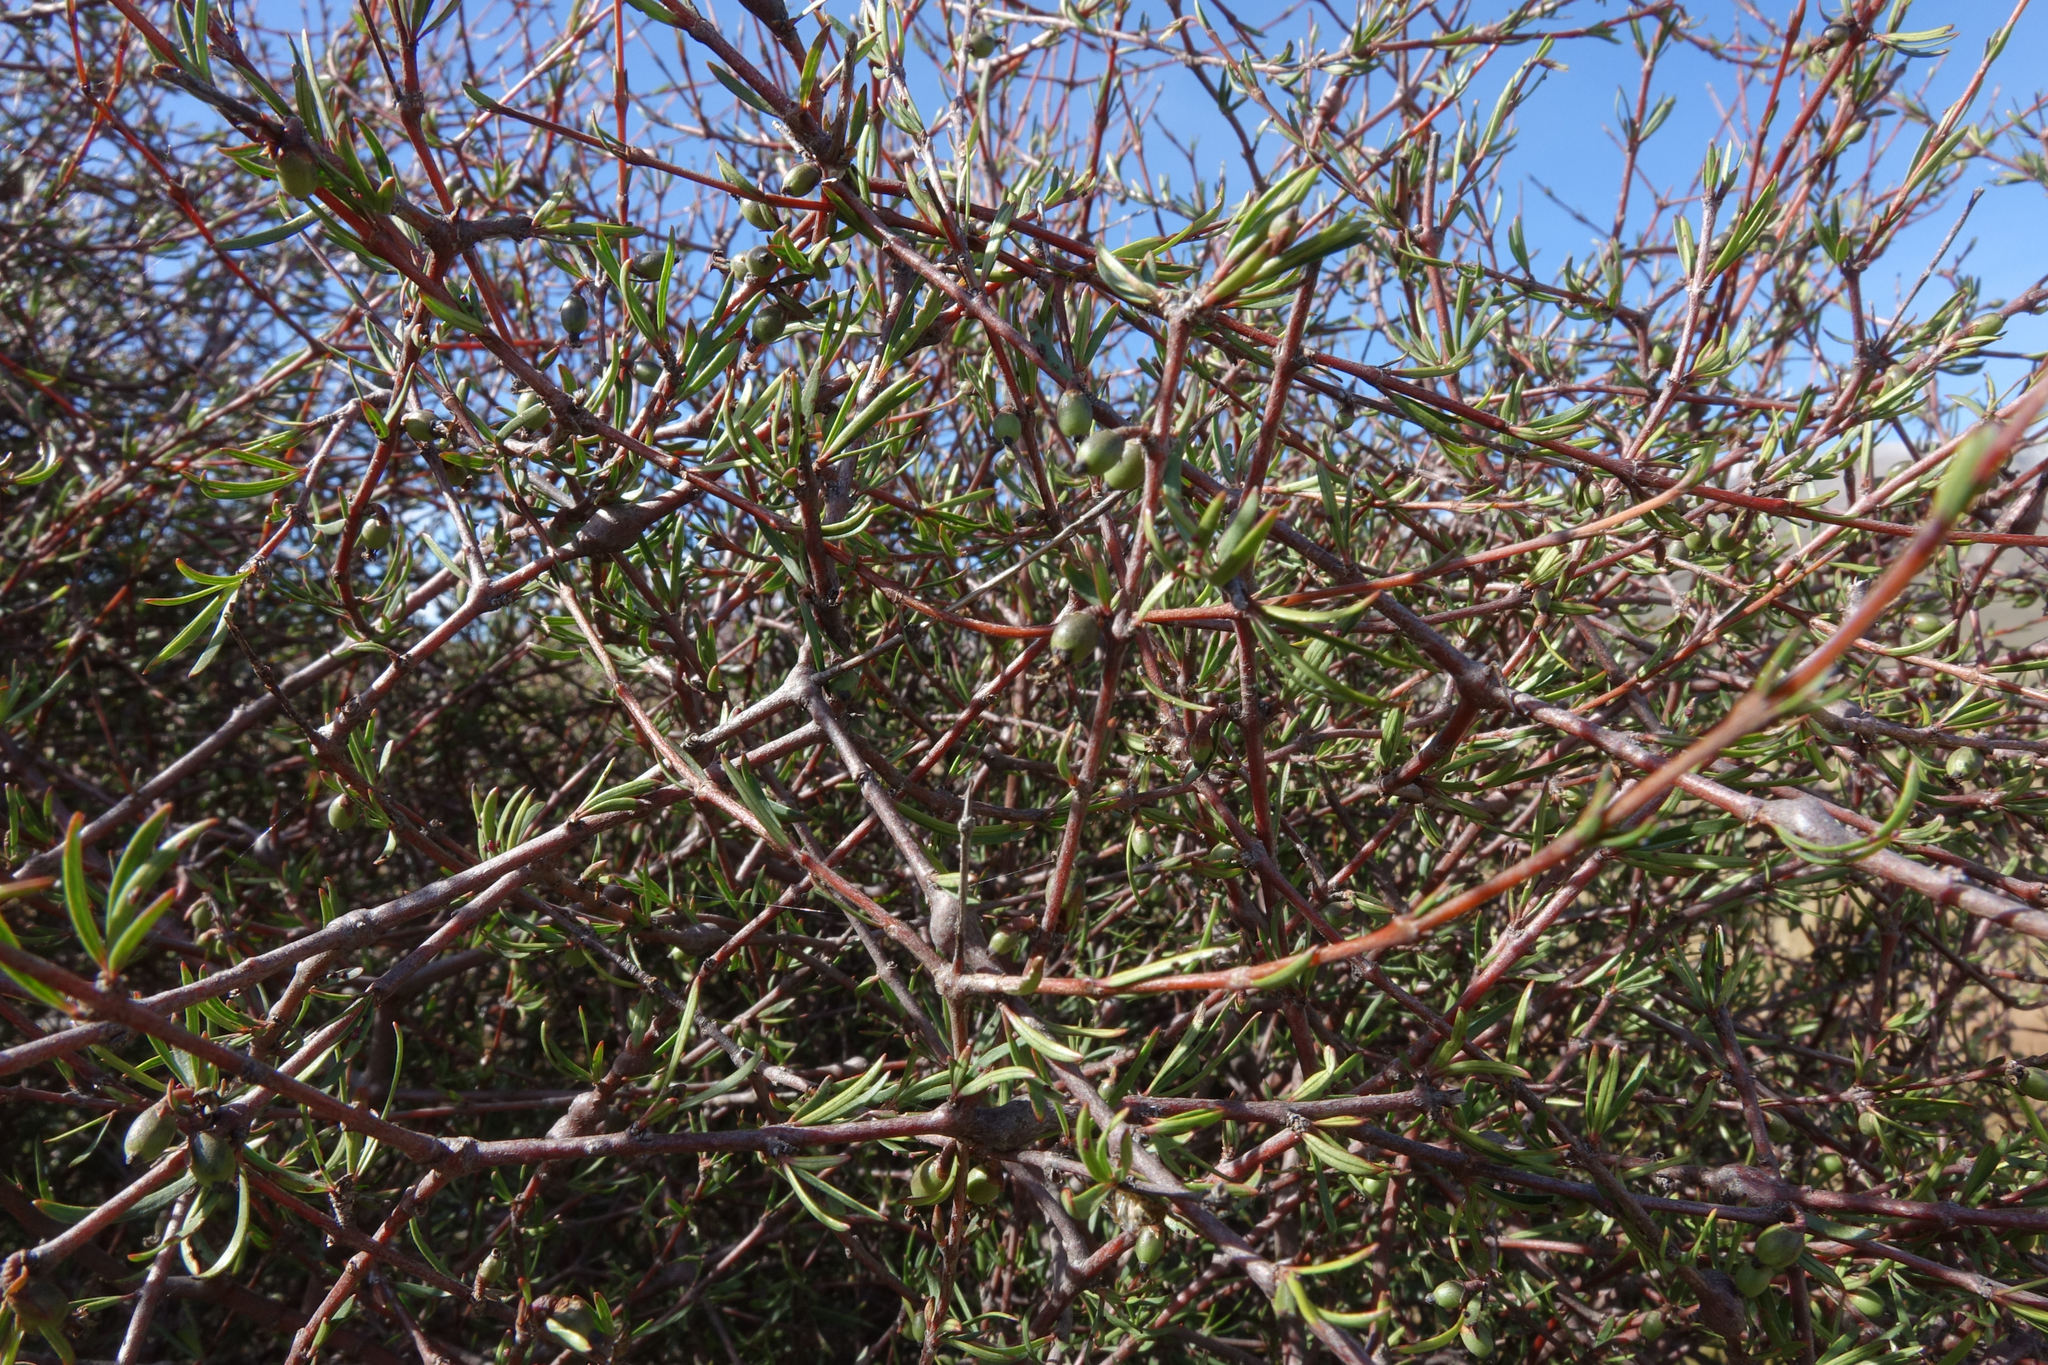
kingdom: Plantae
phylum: Tracheophyta
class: Magnoliopsida
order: Gentianales
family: Rubiaceae
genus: Coprosma
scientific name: Coprosma intertexta
